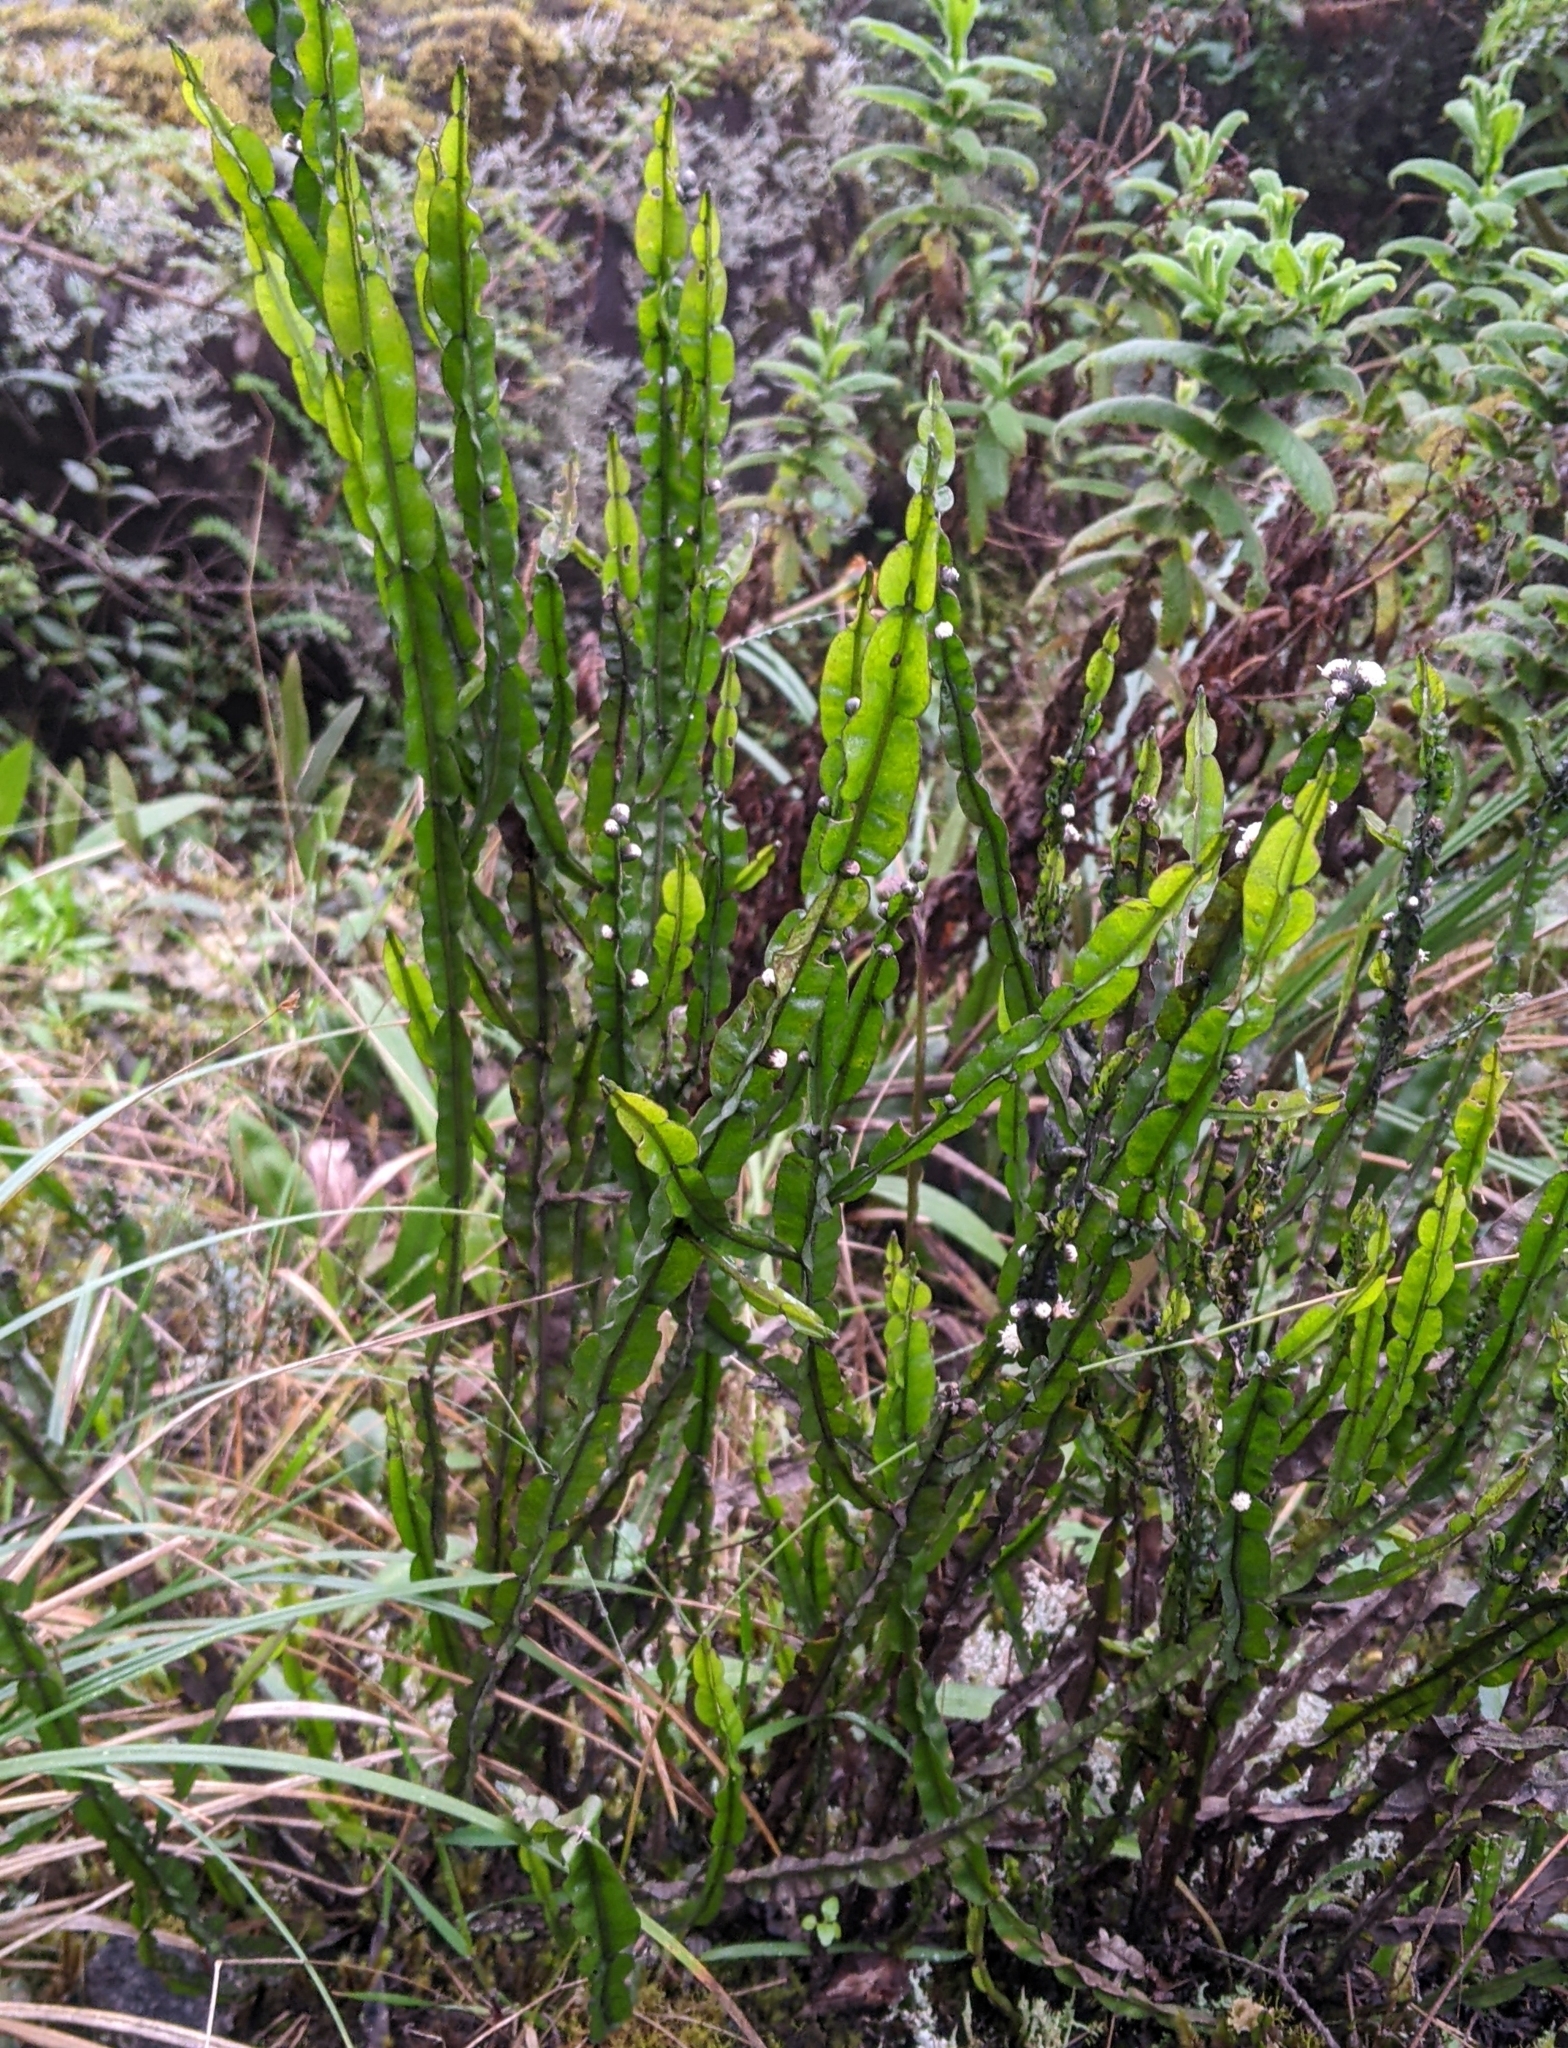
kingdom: Plantae
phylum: Tracheophyta
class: Magnoliopsida
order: Asterales
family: Asteraceae
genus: Baccharis
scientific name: Baccharis genistelloides
